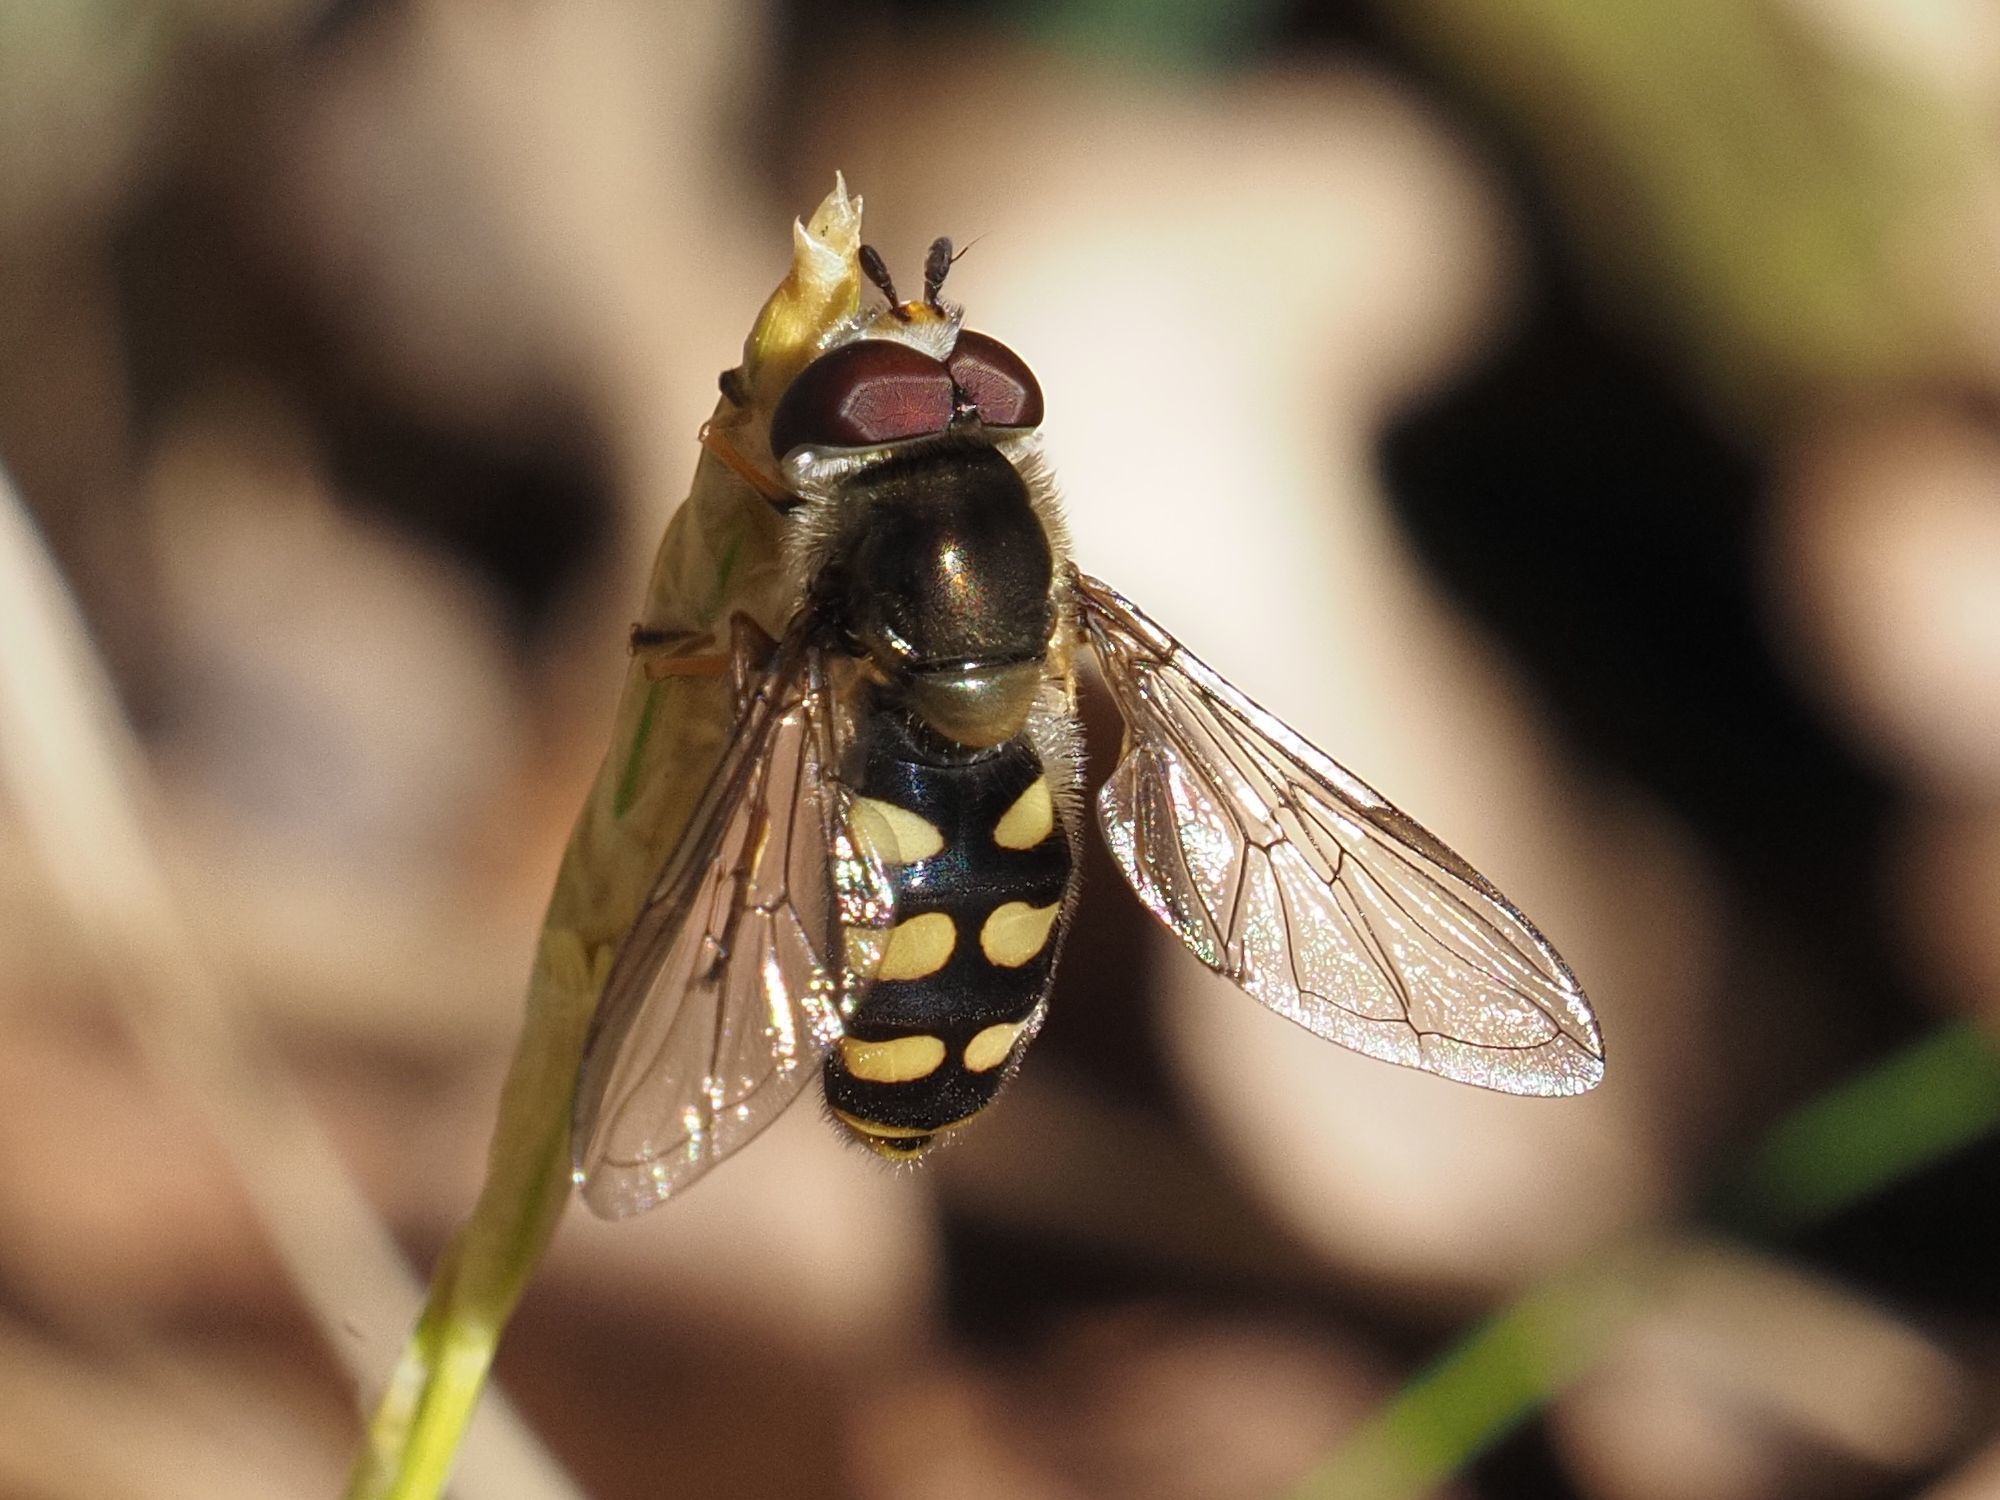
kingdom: Animalia
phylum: Arthropoda
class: Insecta
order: Diptera
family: Syrphidae
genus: Eupeodes
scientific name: Eupeodes luniger
